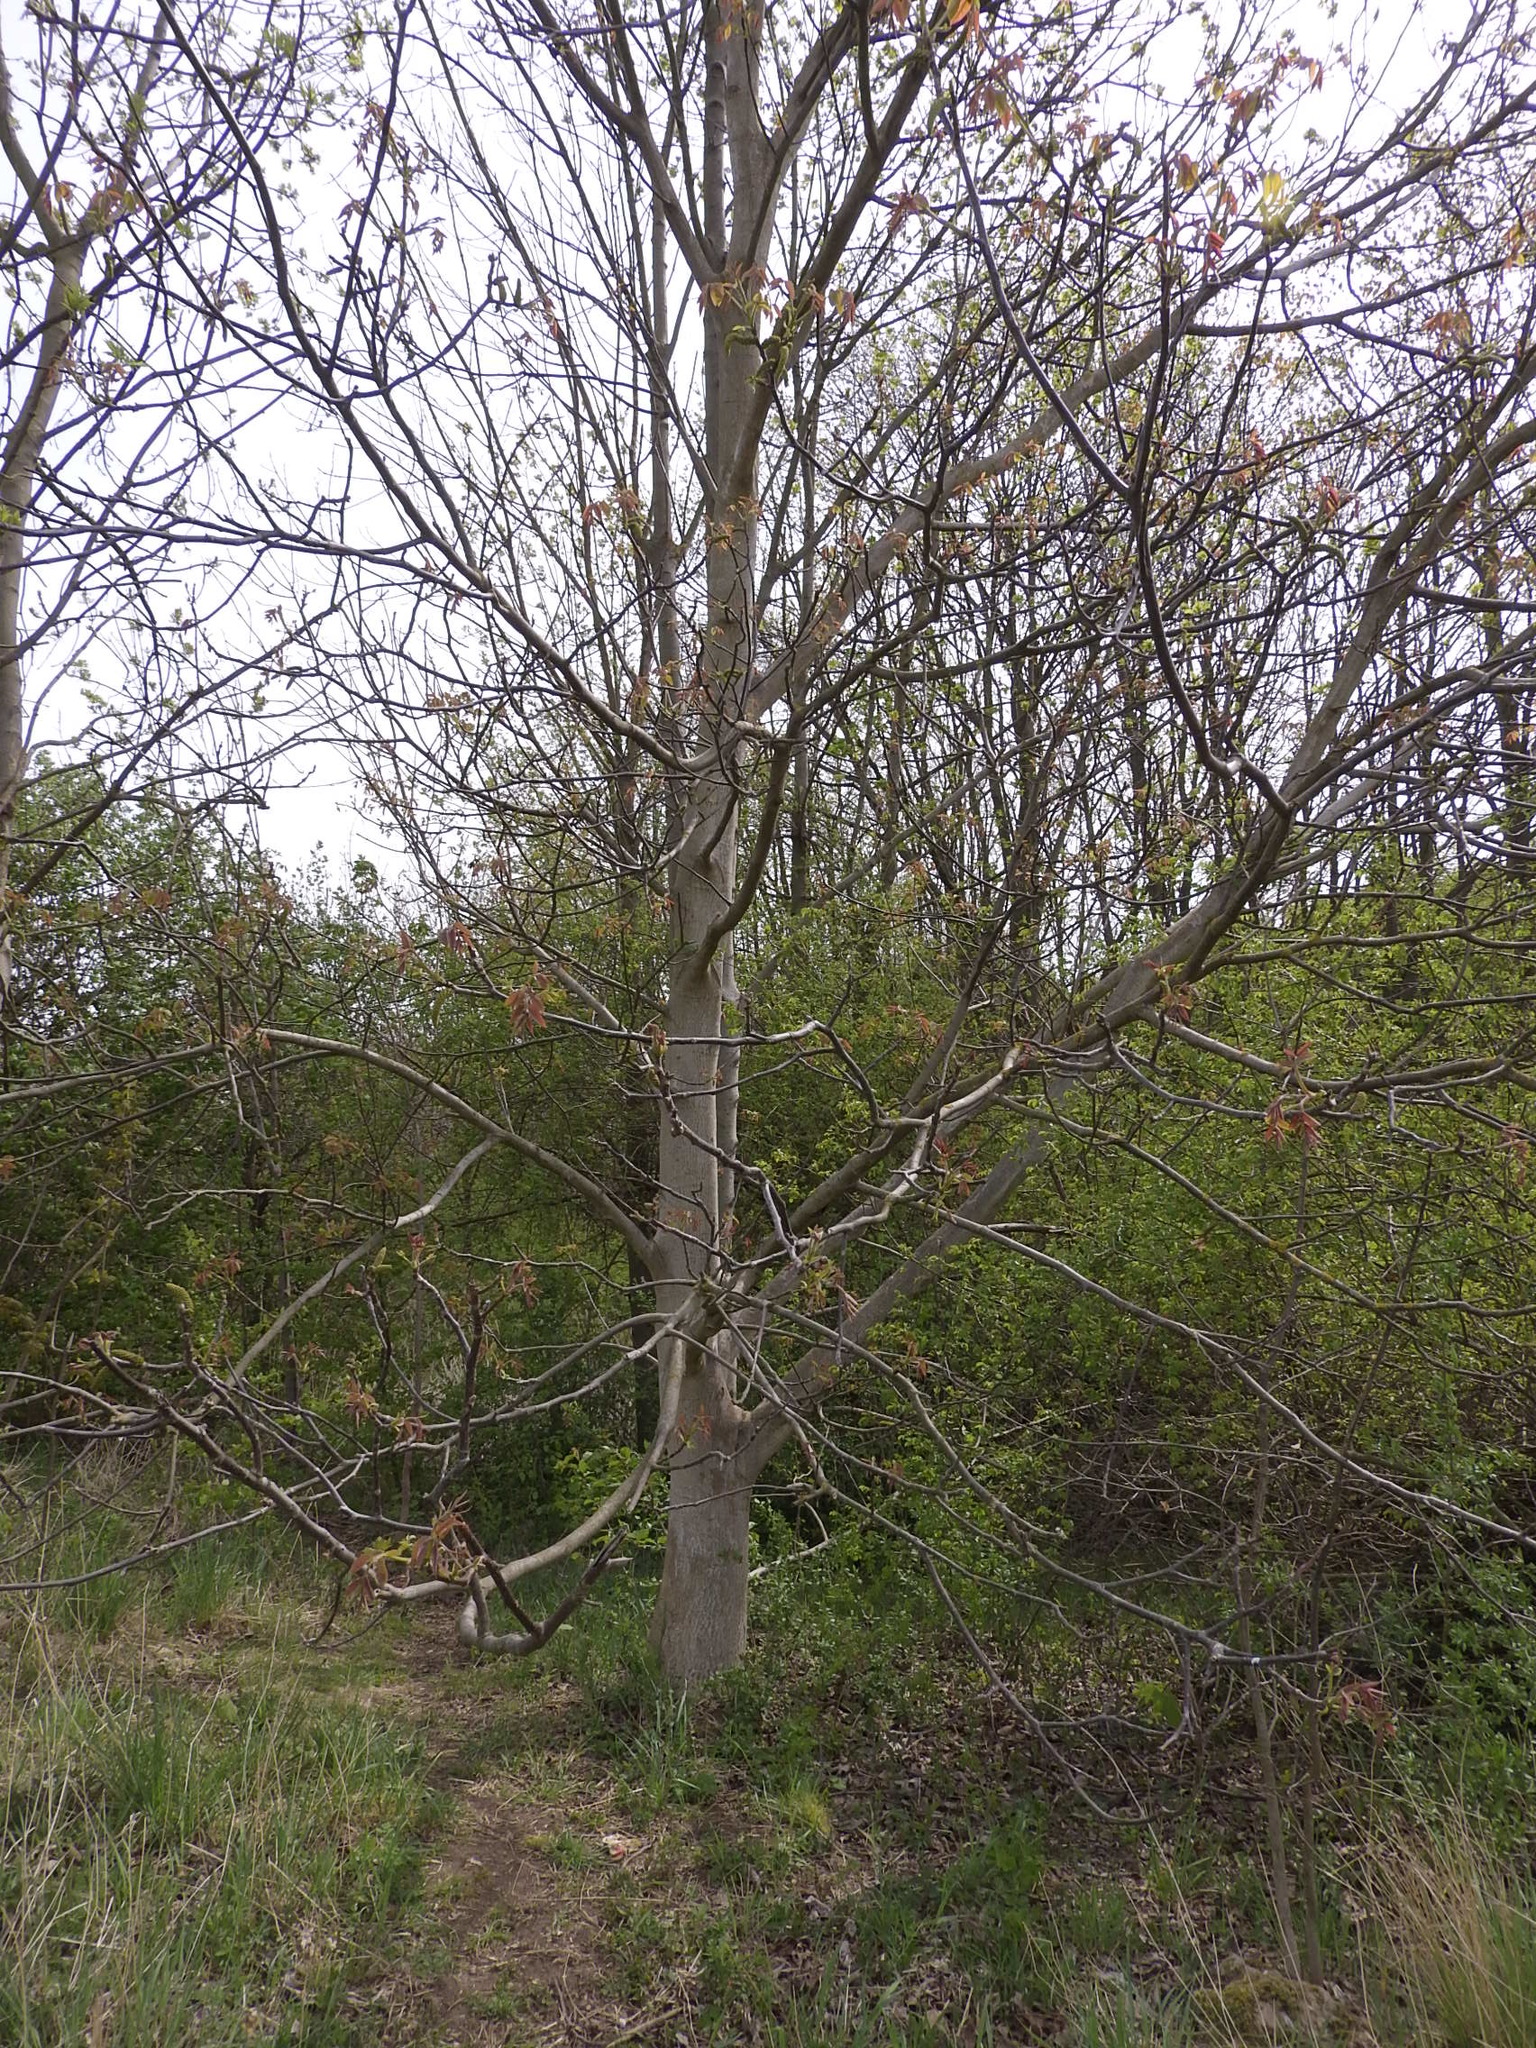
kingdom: Plantae
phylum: Tracheophyta
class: Magnoliopsida
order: Fagales
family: Juglandaceae
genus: Juglans
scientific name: Juglans regia
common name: Walnut
